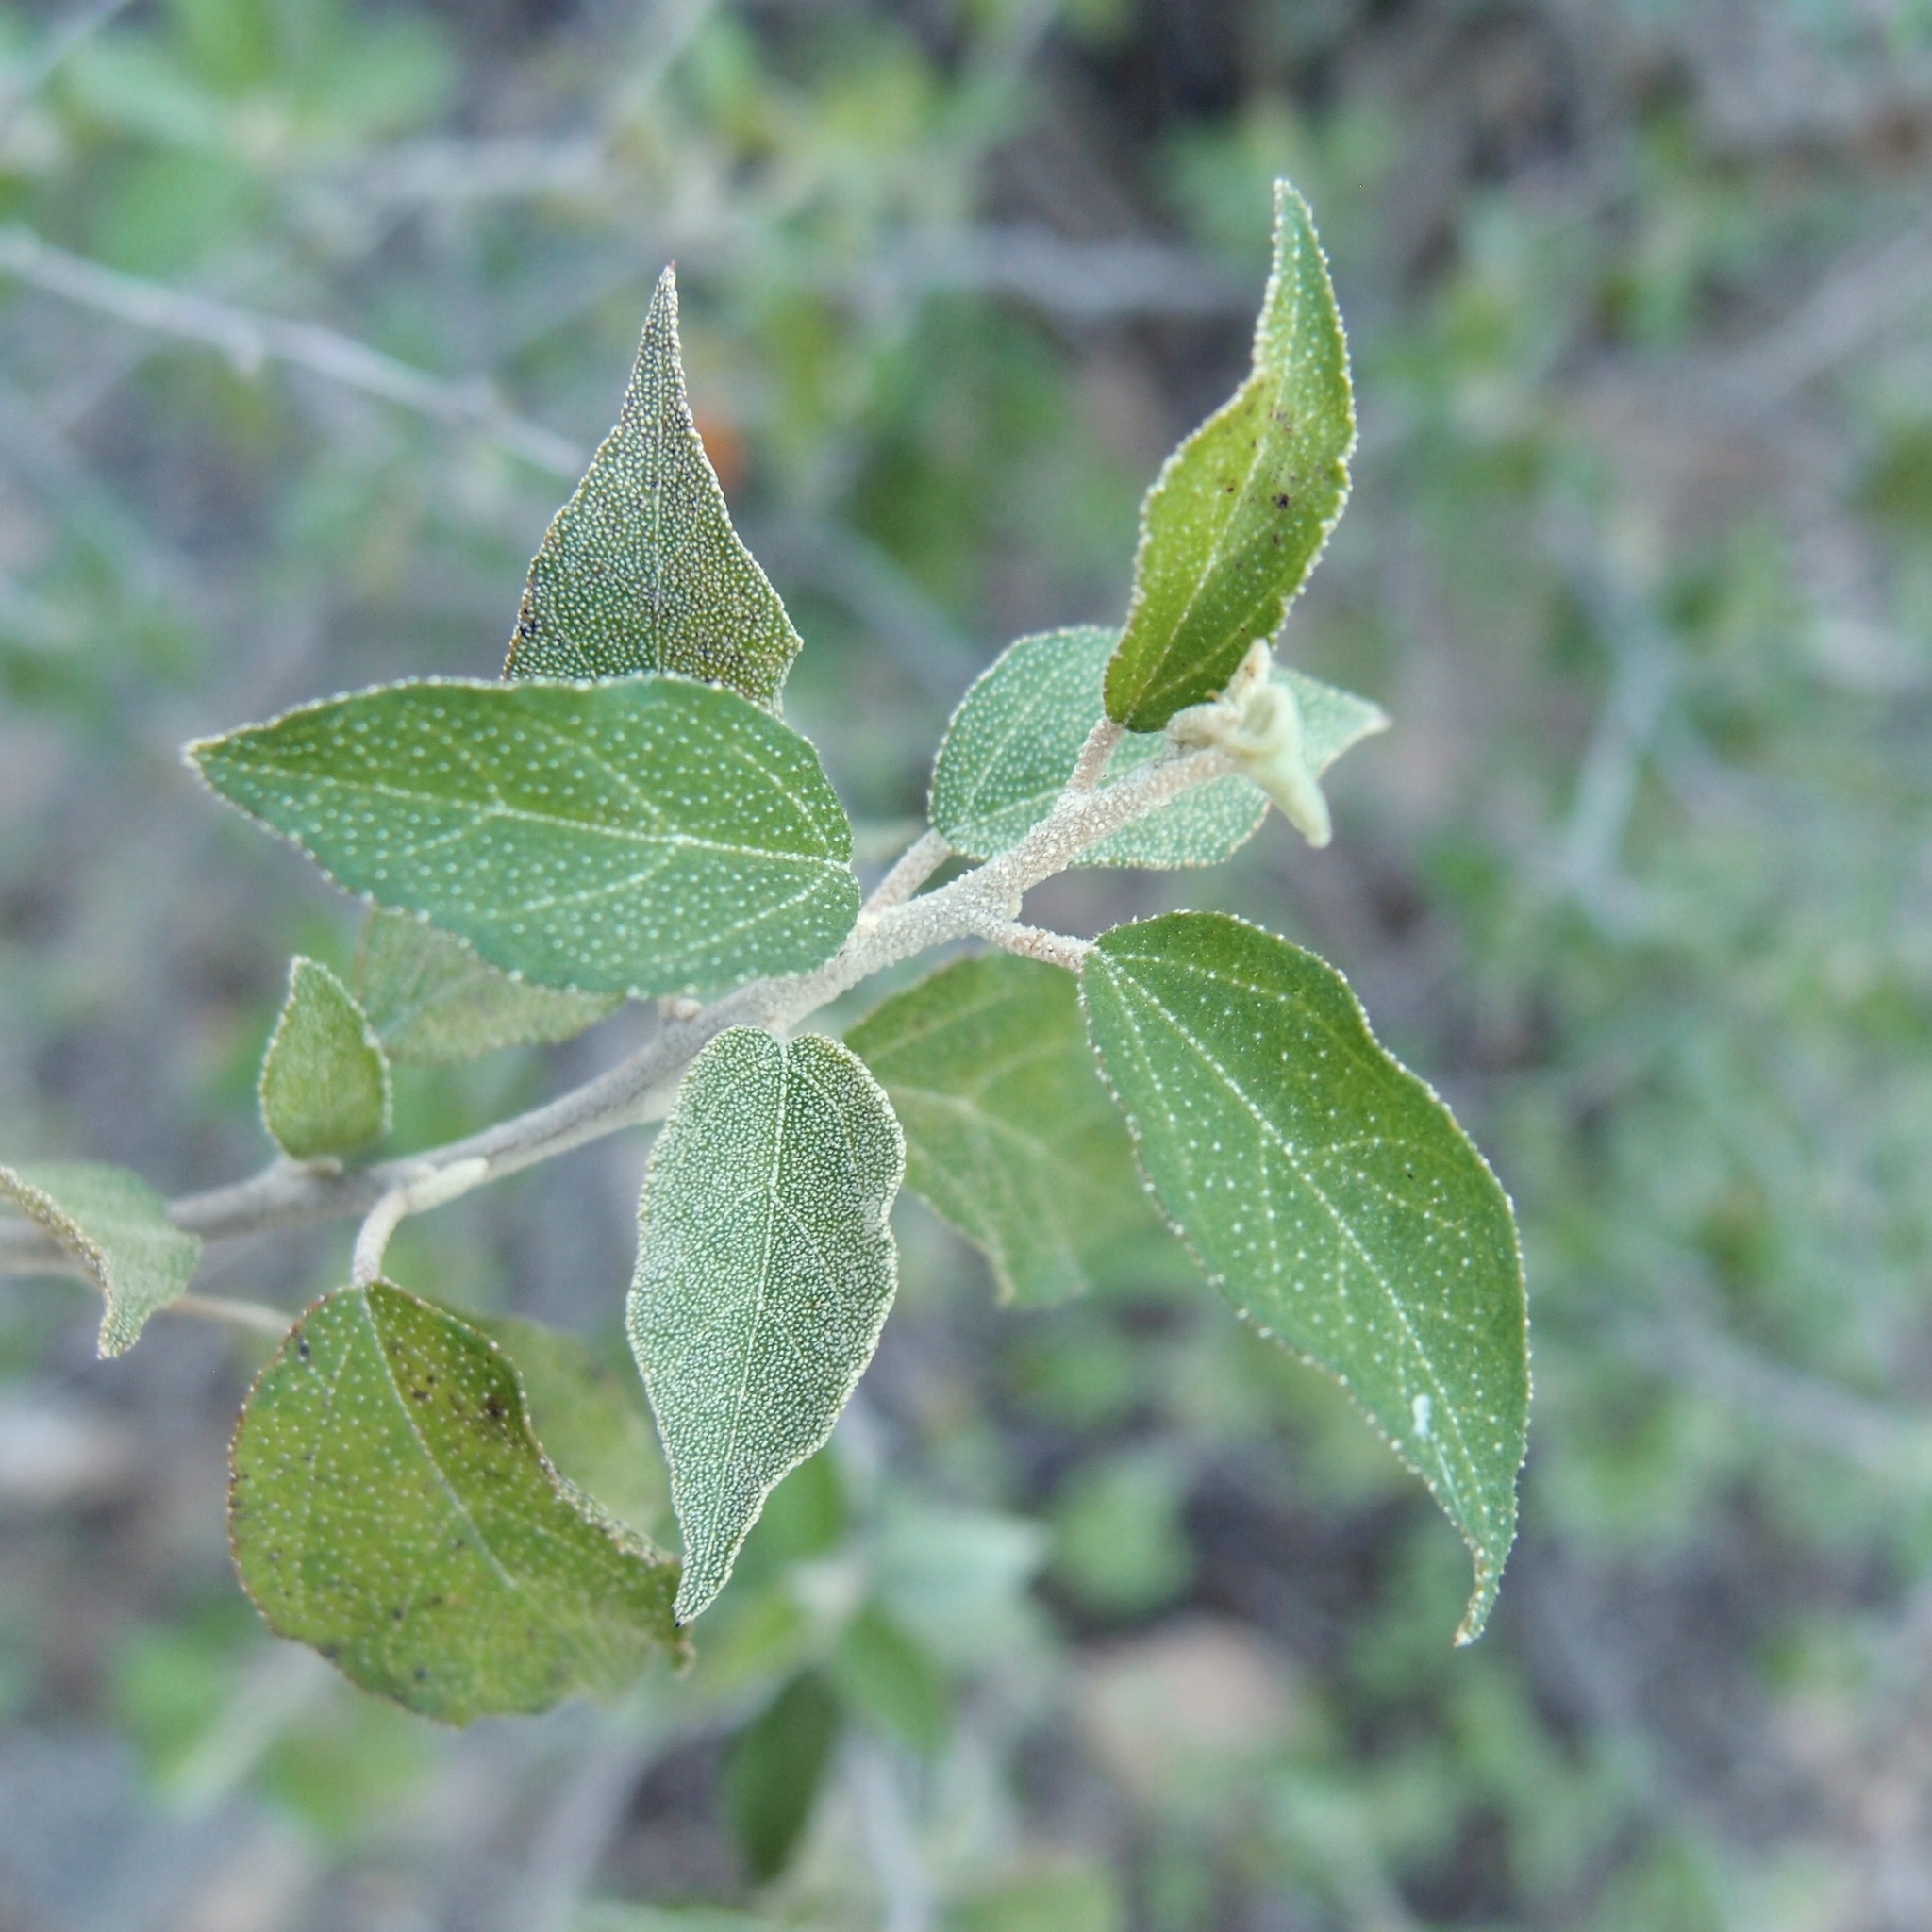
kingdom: Plantae
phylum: Tracheophyta
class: Magnoliopsida
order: Malpighiales
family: Euphorbiaceae
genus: Croton
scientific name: Croton sonorae
